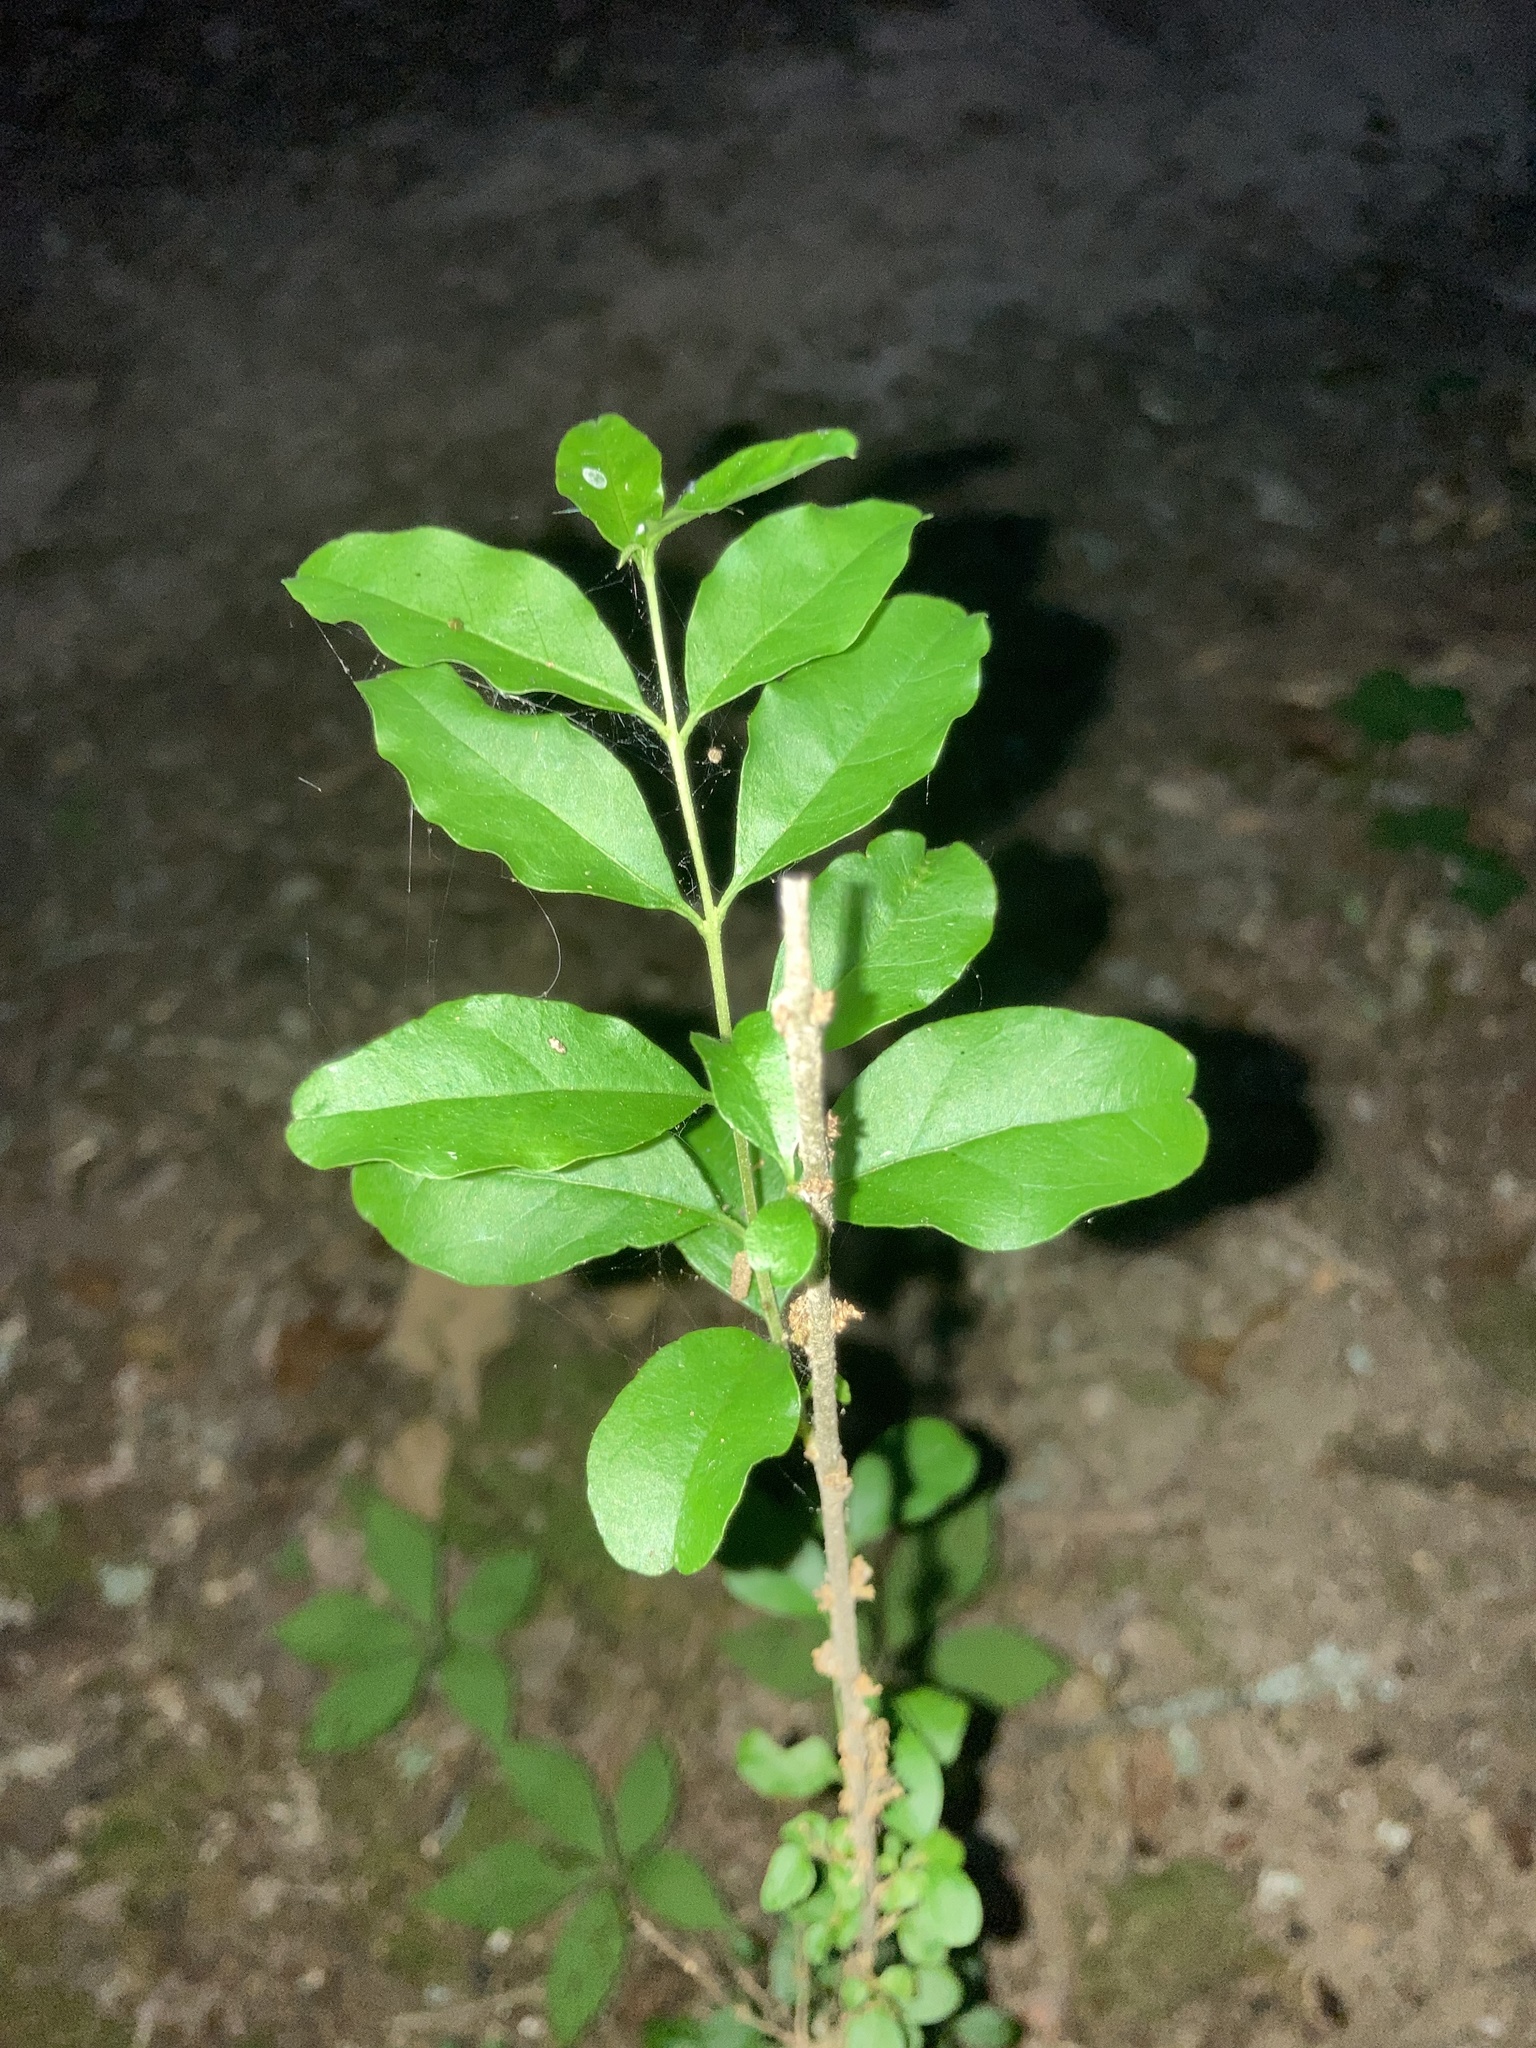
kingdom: Plantae
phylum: Tracheophyta
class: Magnoliopsida
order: Lamiales
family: Oleaceae
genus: Ligustrum
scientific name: Ligustrum sinense
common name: Chinese privet
